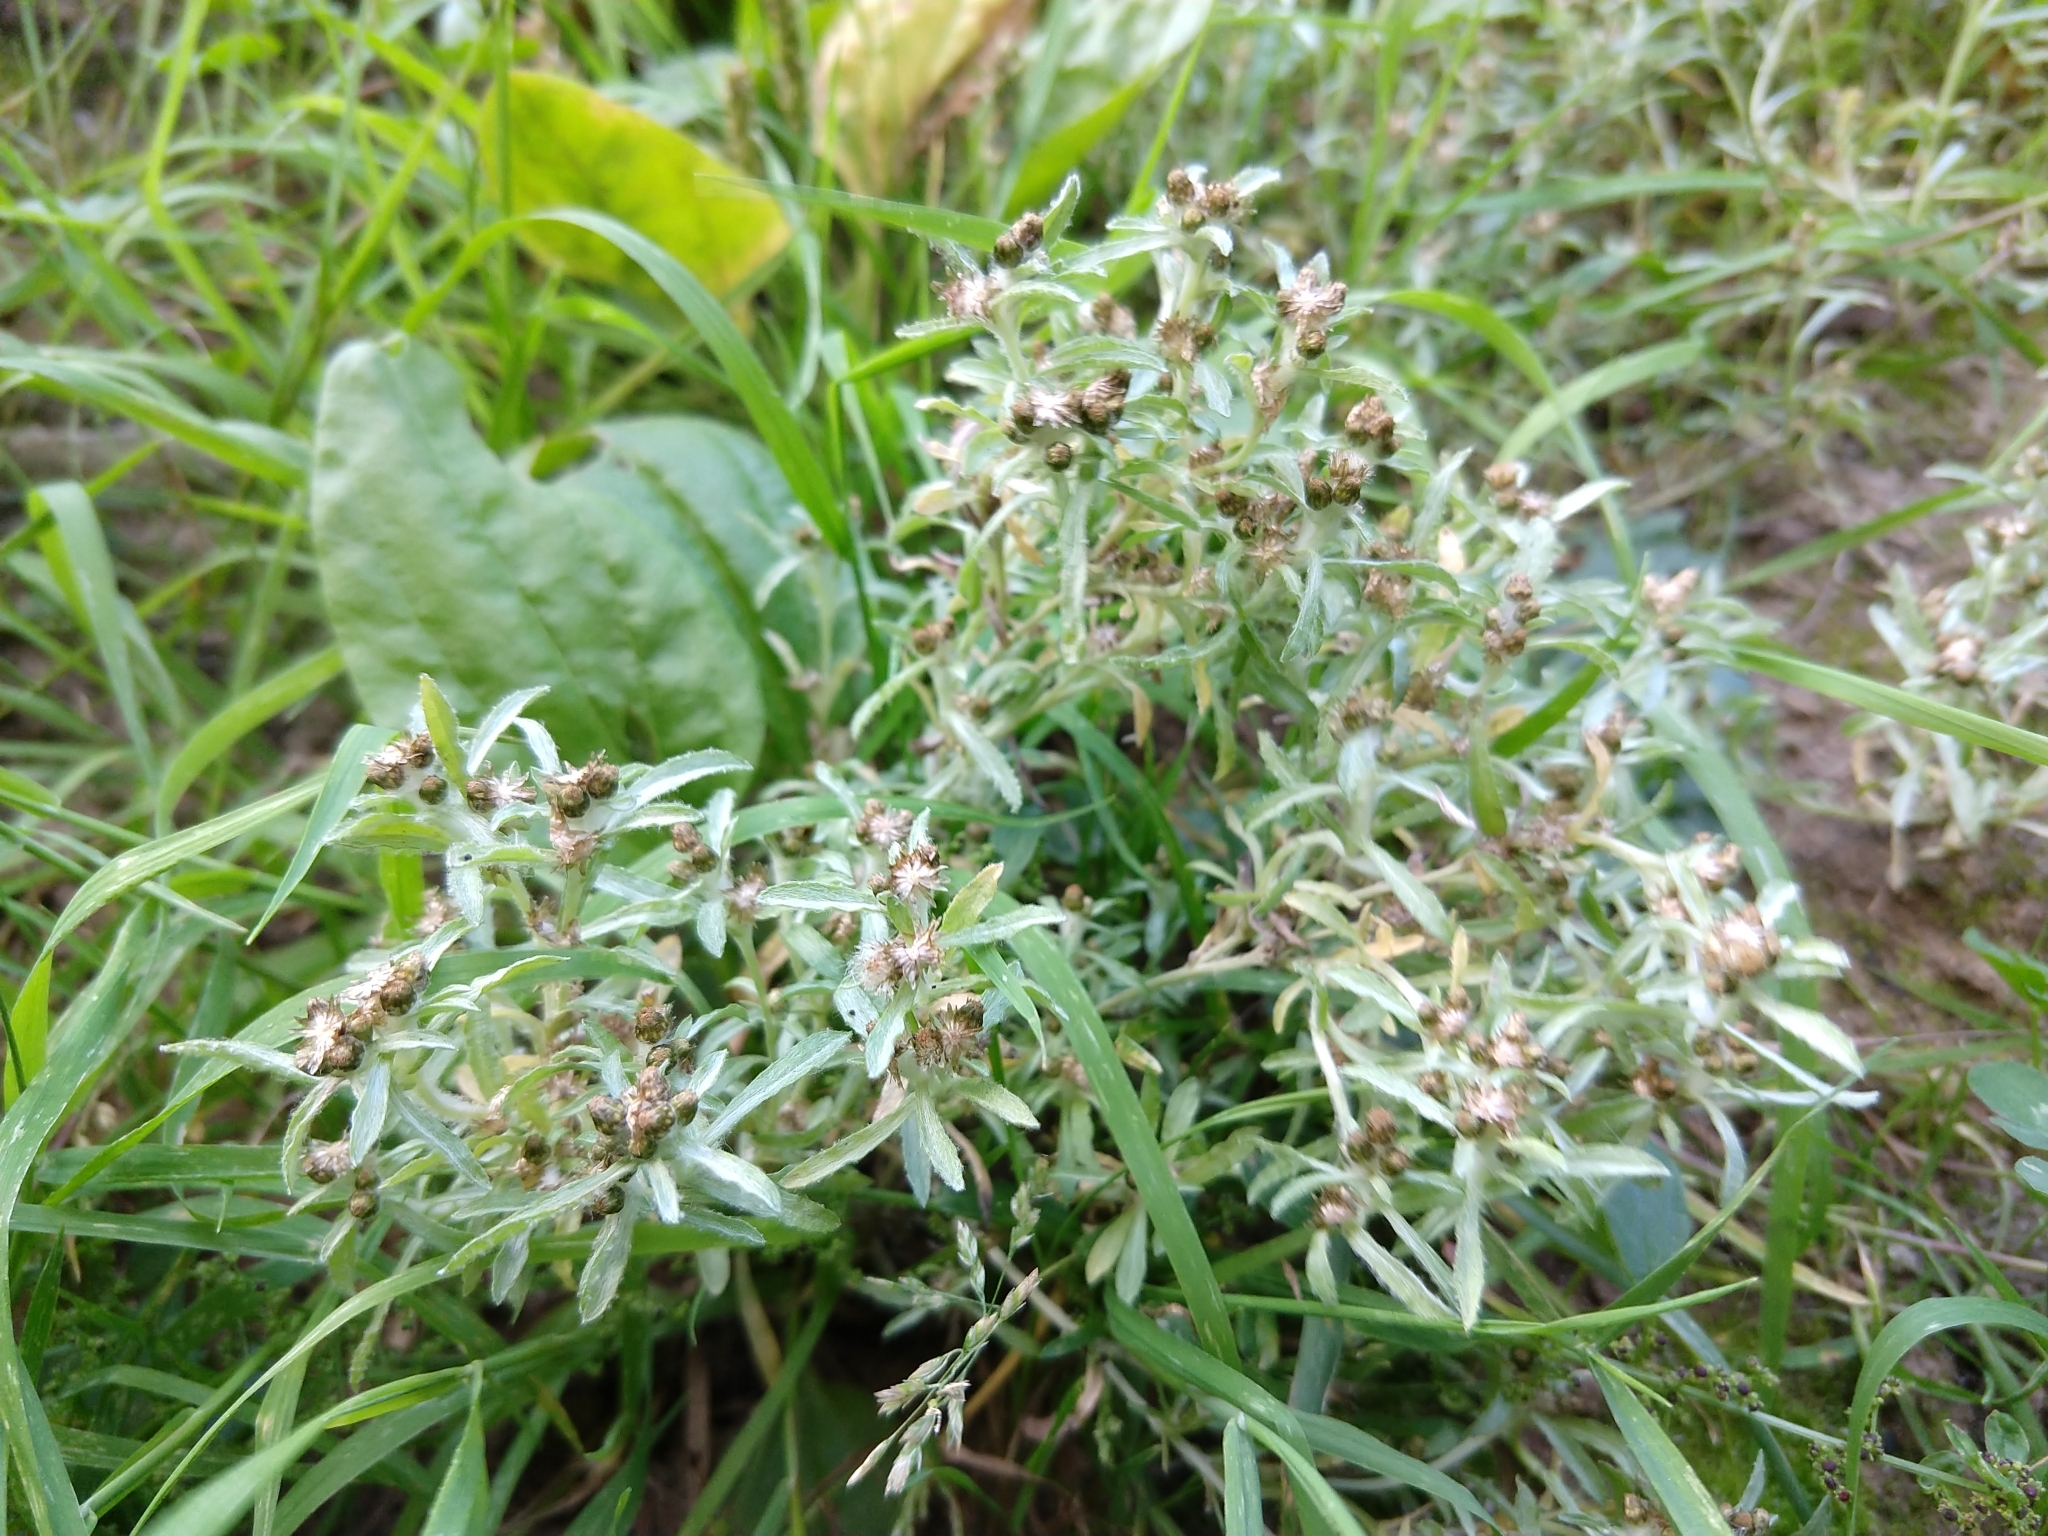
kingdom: Plantae
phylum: Tracheophyta
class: Magnoliopsida
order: Asterales
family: Asteraceae
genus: Gnaphalium
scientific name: Gnaphalium uliginosum
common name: Marsh cudweed
